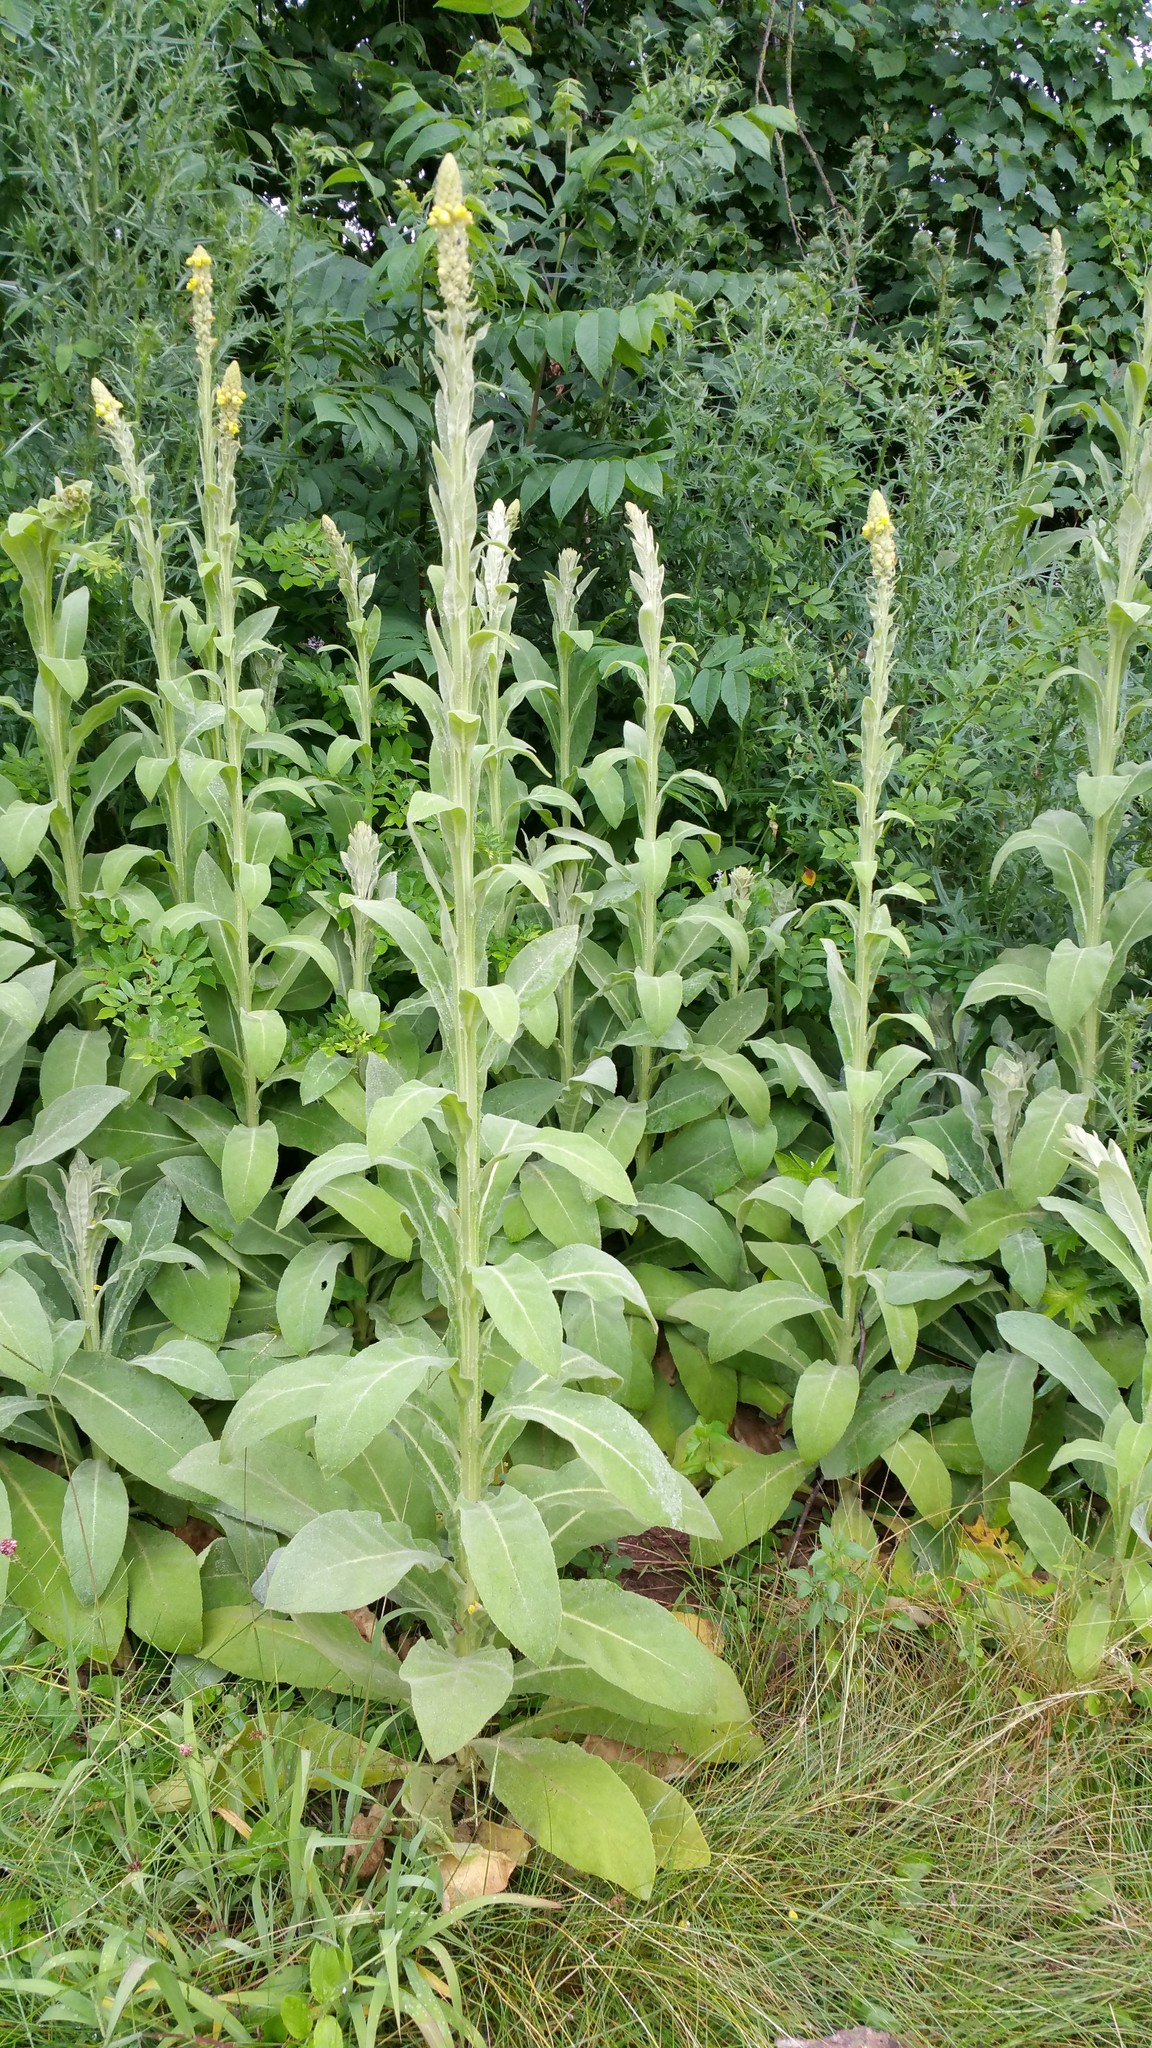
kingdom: Plantae
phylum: Tracheophyta
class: Magnoliopsida
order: Lamiales
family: Scrophulariaceae
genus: Verbascum
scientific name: Verbascum thapsus
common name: Common mullein
